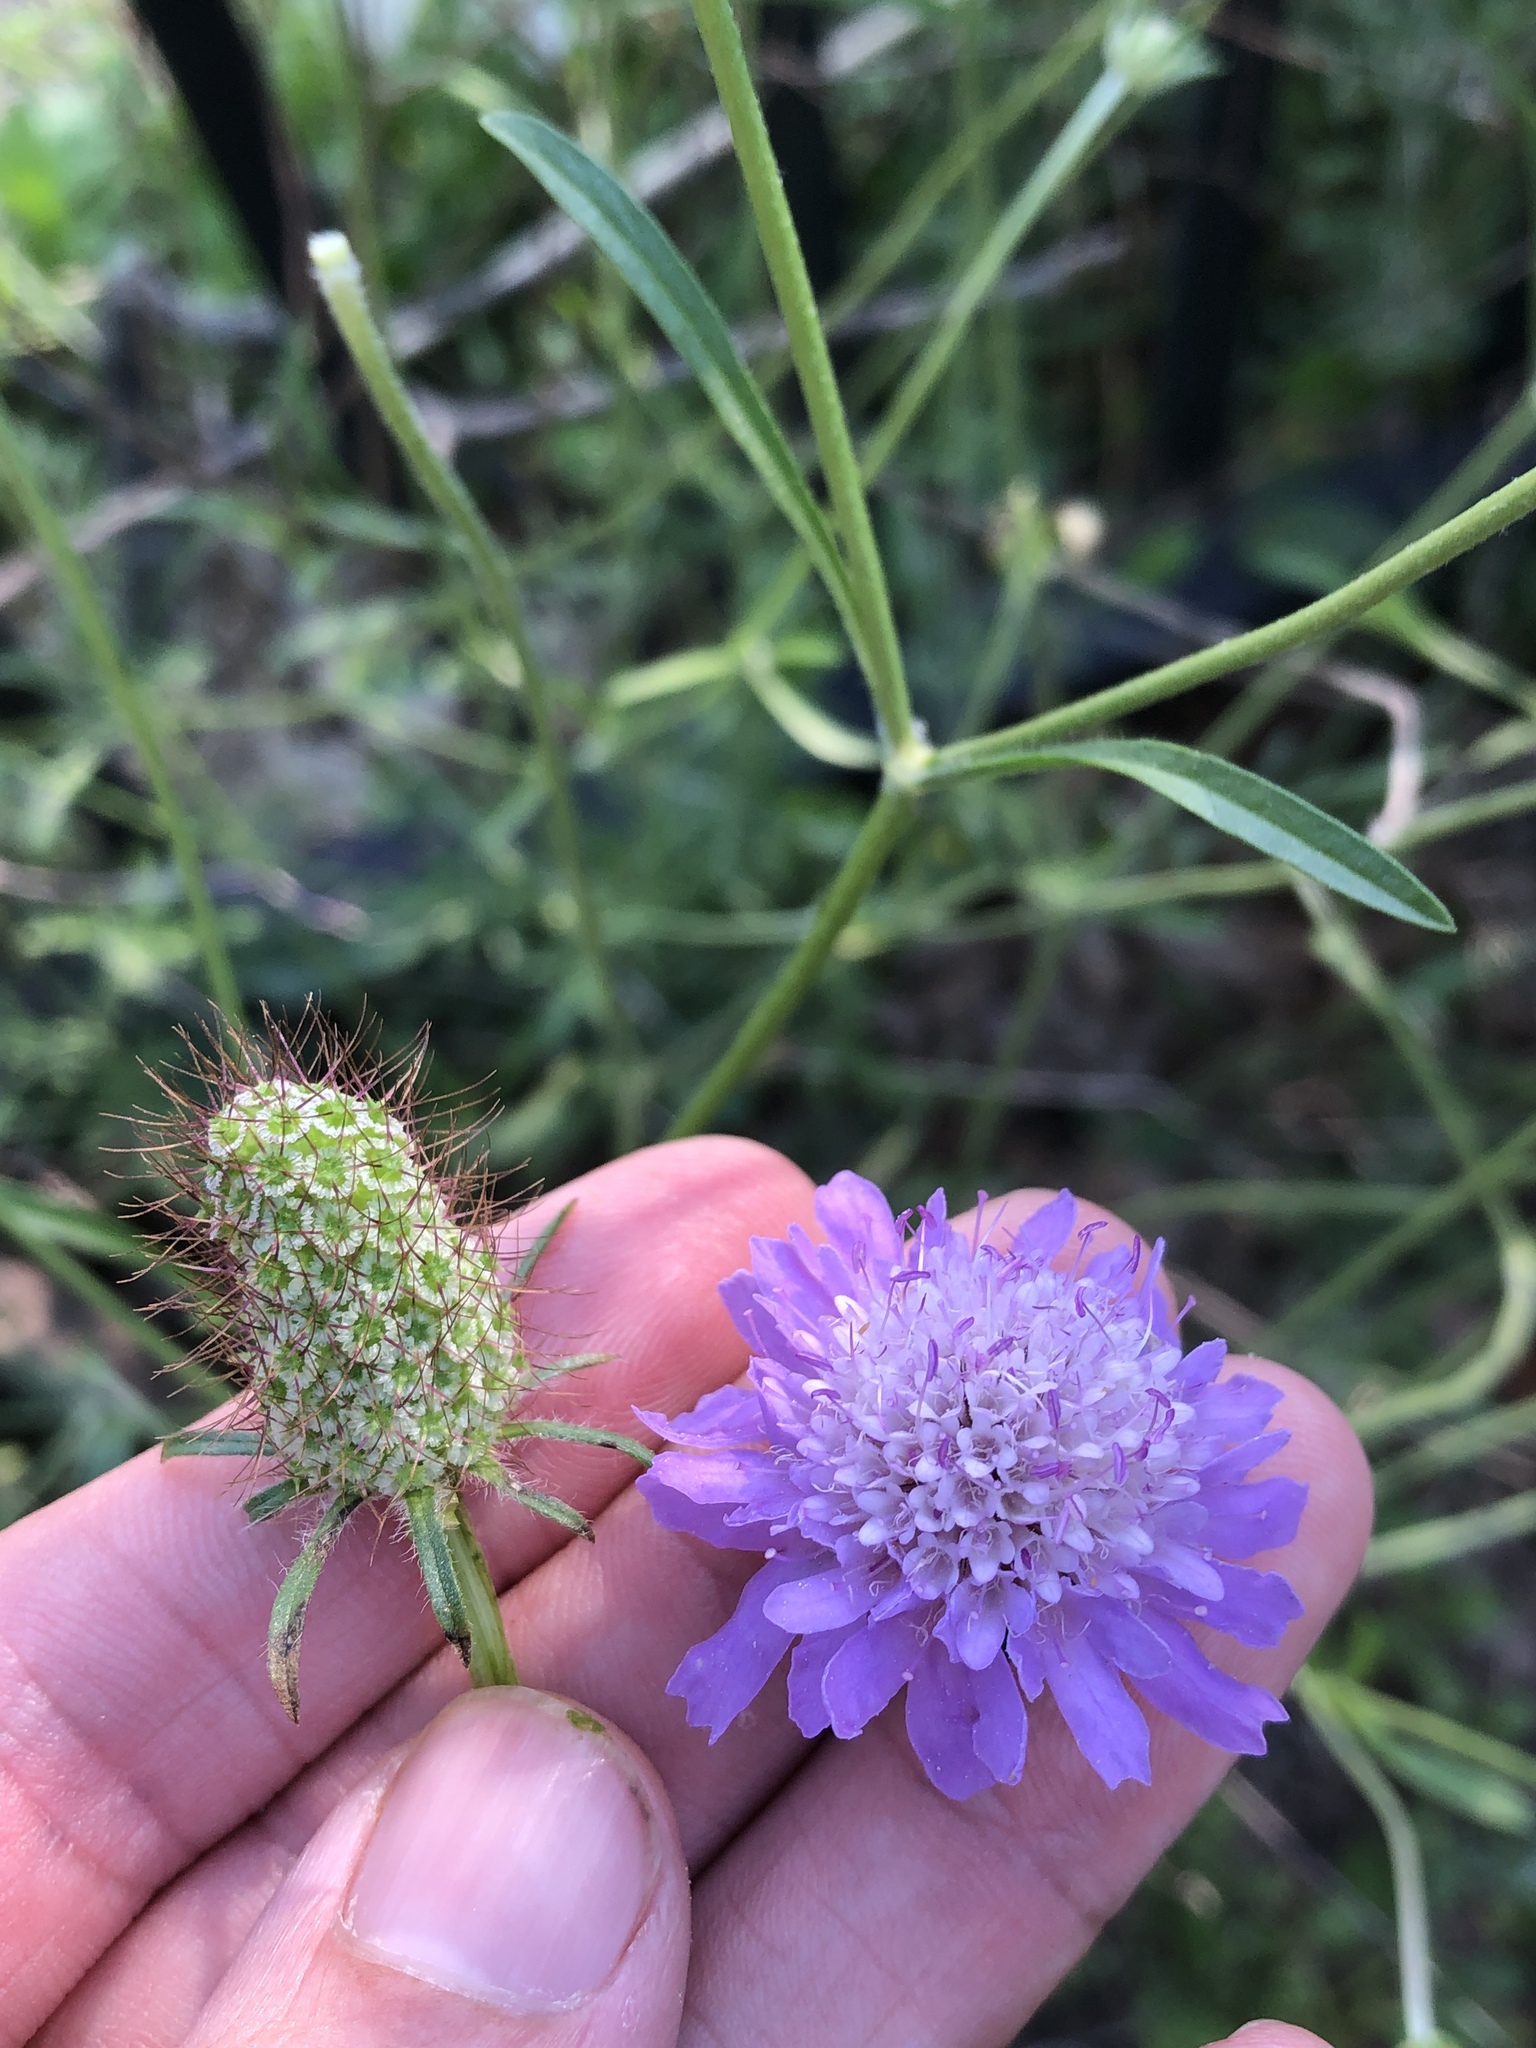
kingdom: Plantae
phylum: Tracheophyta
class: Magnoliopsida
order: Dipsacales
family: Caprifoliaceae
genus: Sixalix
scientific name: Sixalix atropurpurea
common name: Sweet scabious
